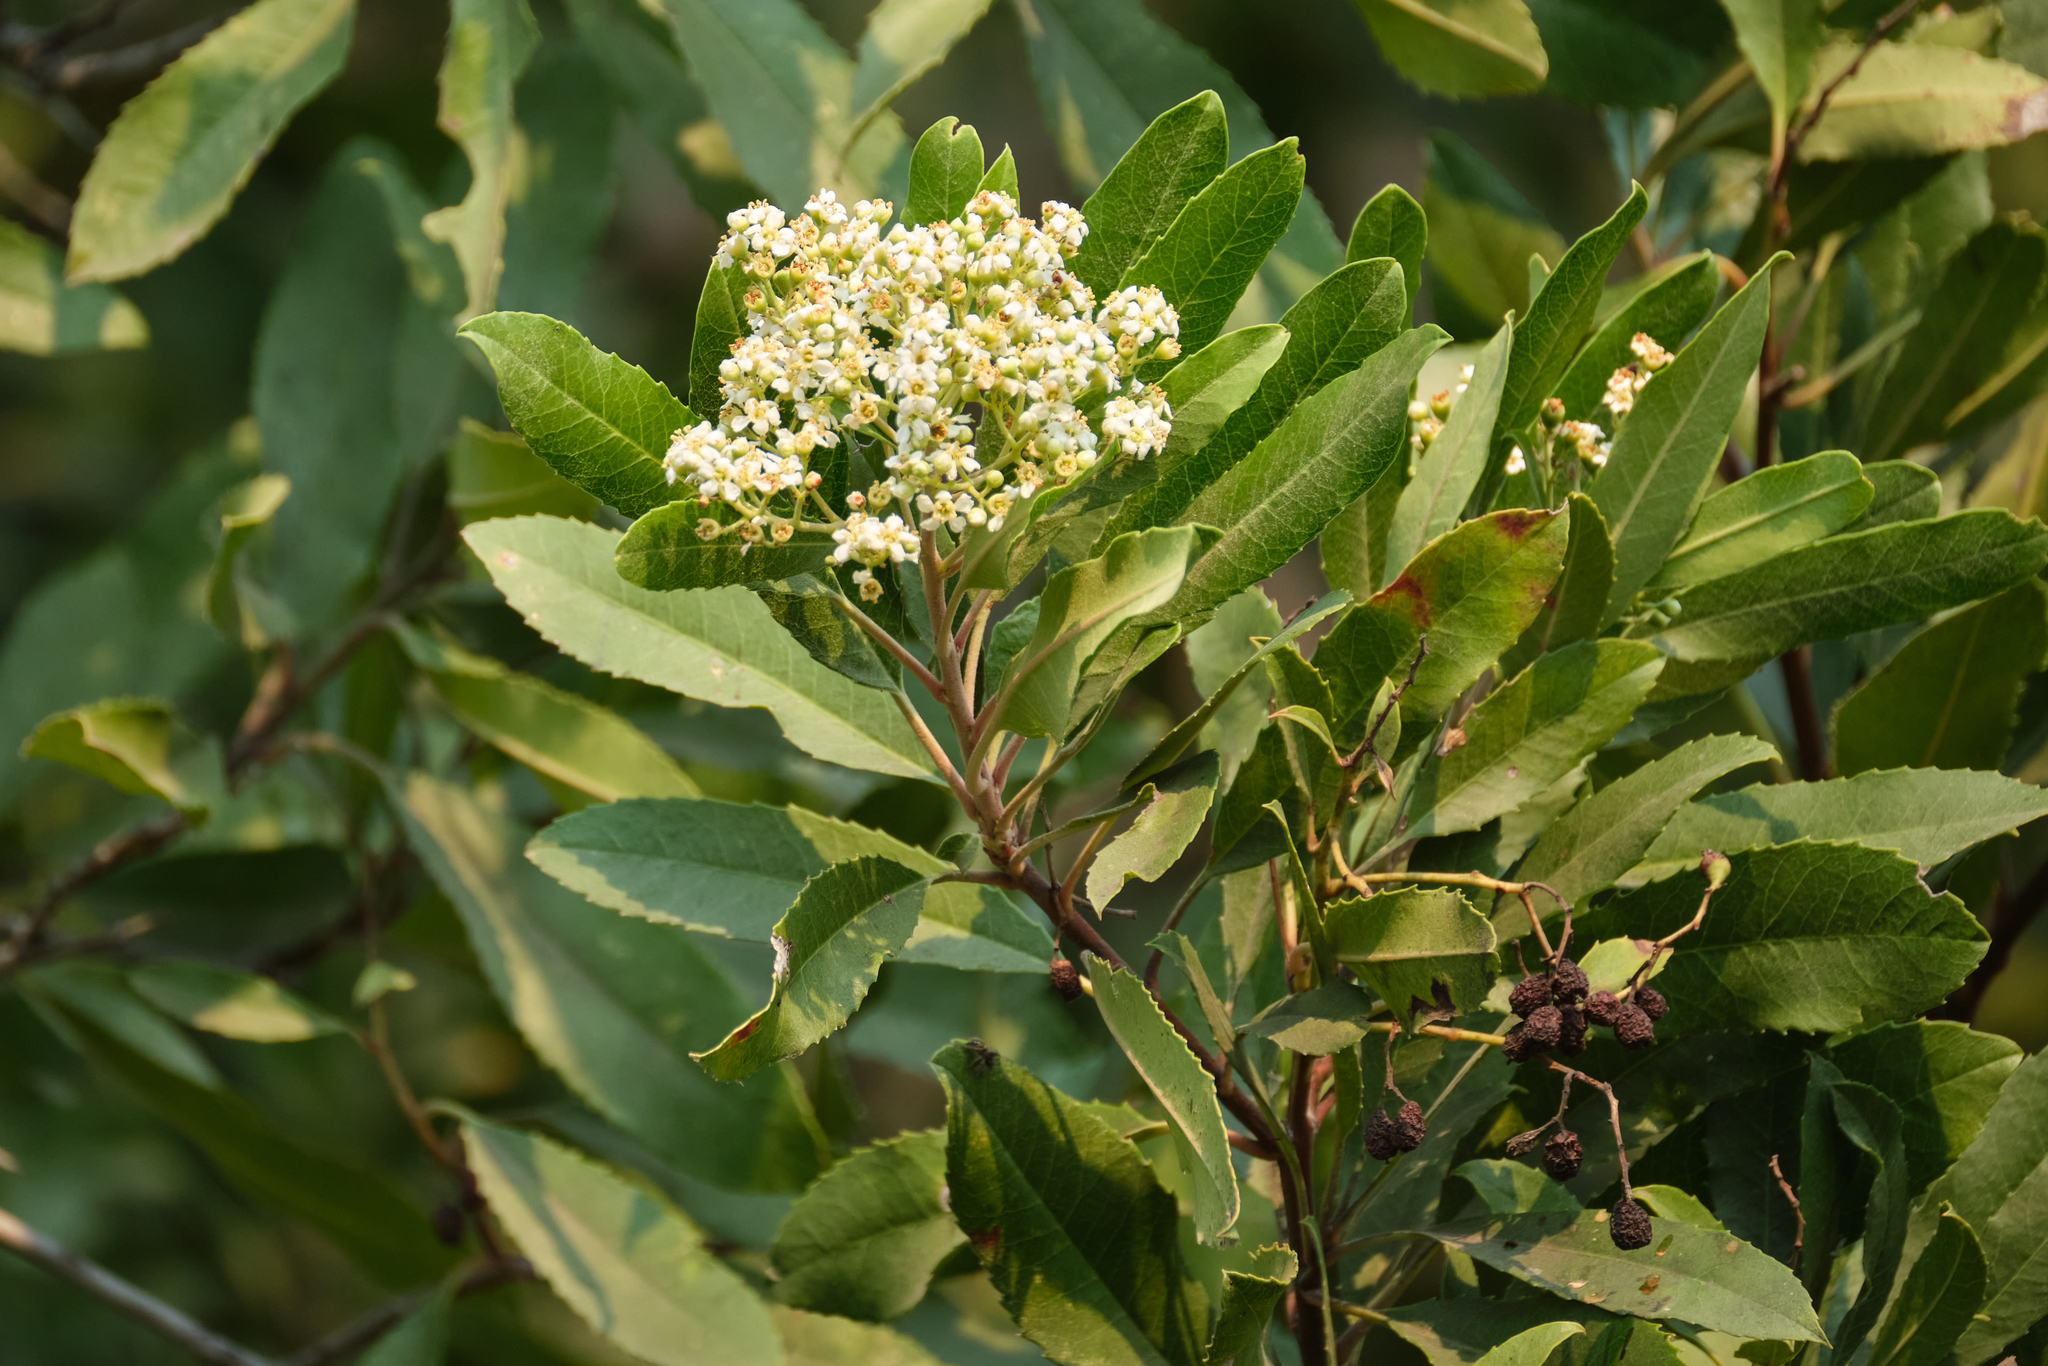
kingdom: Plantae
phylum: Tracheophyta
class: Magnoliopsida
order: Rosales
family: Rosaceae
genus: Heteromeles
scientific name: Heteromeles arbutifolia
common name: California-holly
